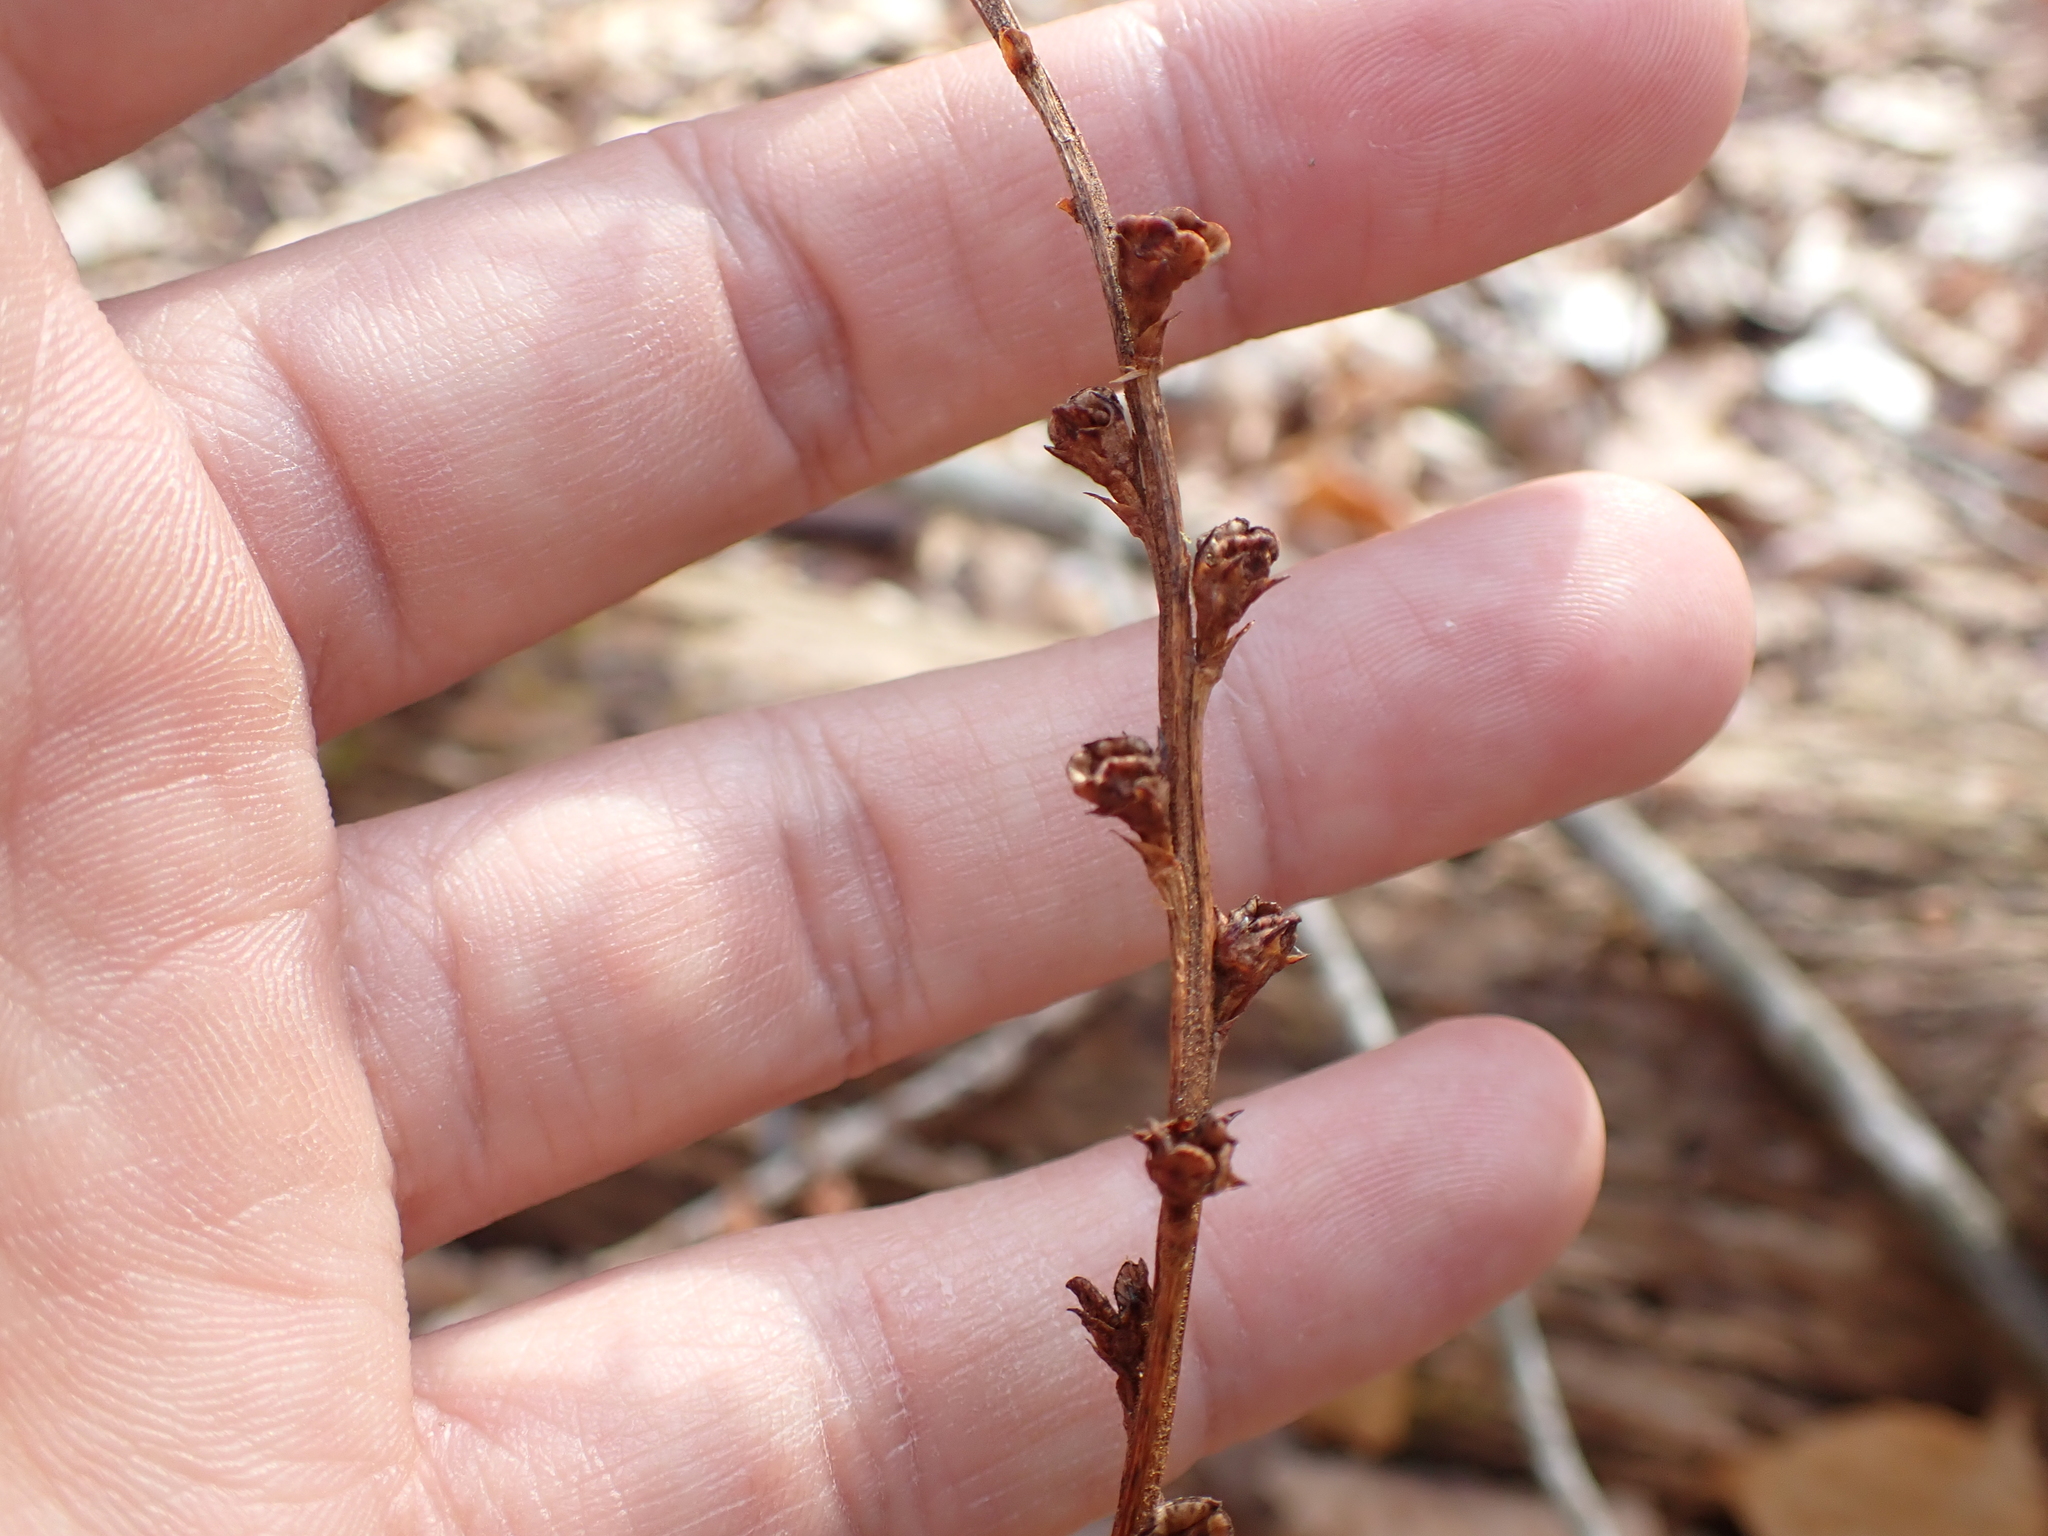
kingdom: Plantae
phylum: Tracheophyta
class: Magnoliopsida
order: Lamiales
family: Orobanchaceae
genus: Epifagus
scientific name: Epifagus virginiana
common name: Beechdrops
